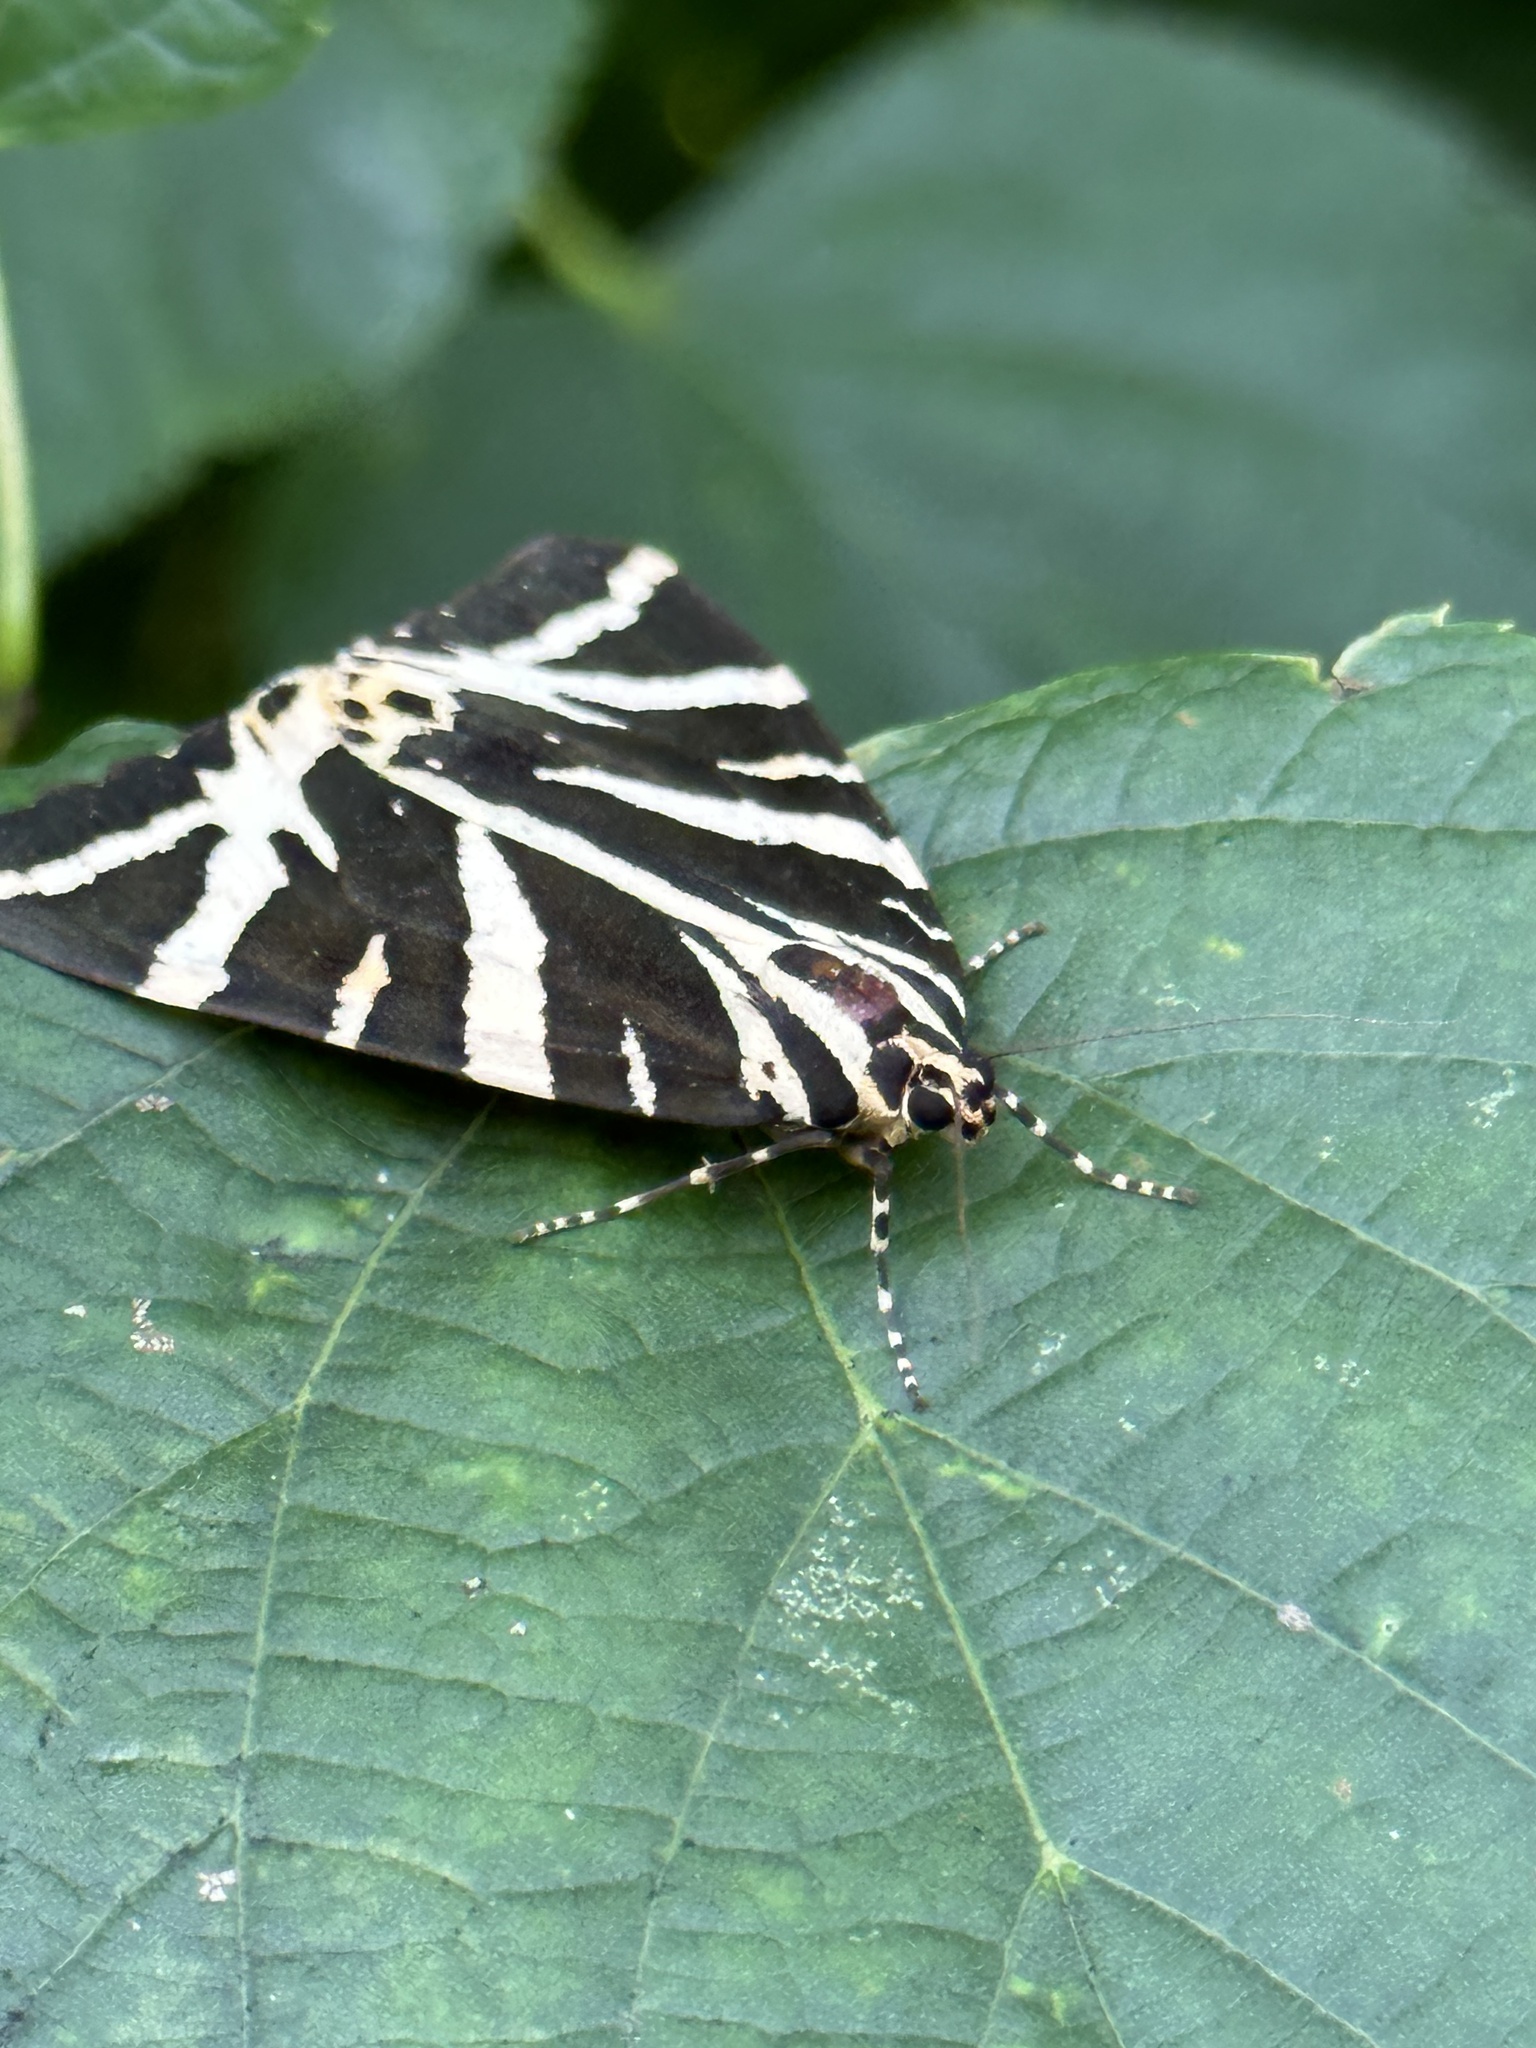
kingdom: Animalia
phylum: Arthropoda
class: Insecta
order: Lepidoptera
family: Erebidae
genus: Euplagia
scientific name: Euplagia quadripunctaria
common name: Jersey tiger
